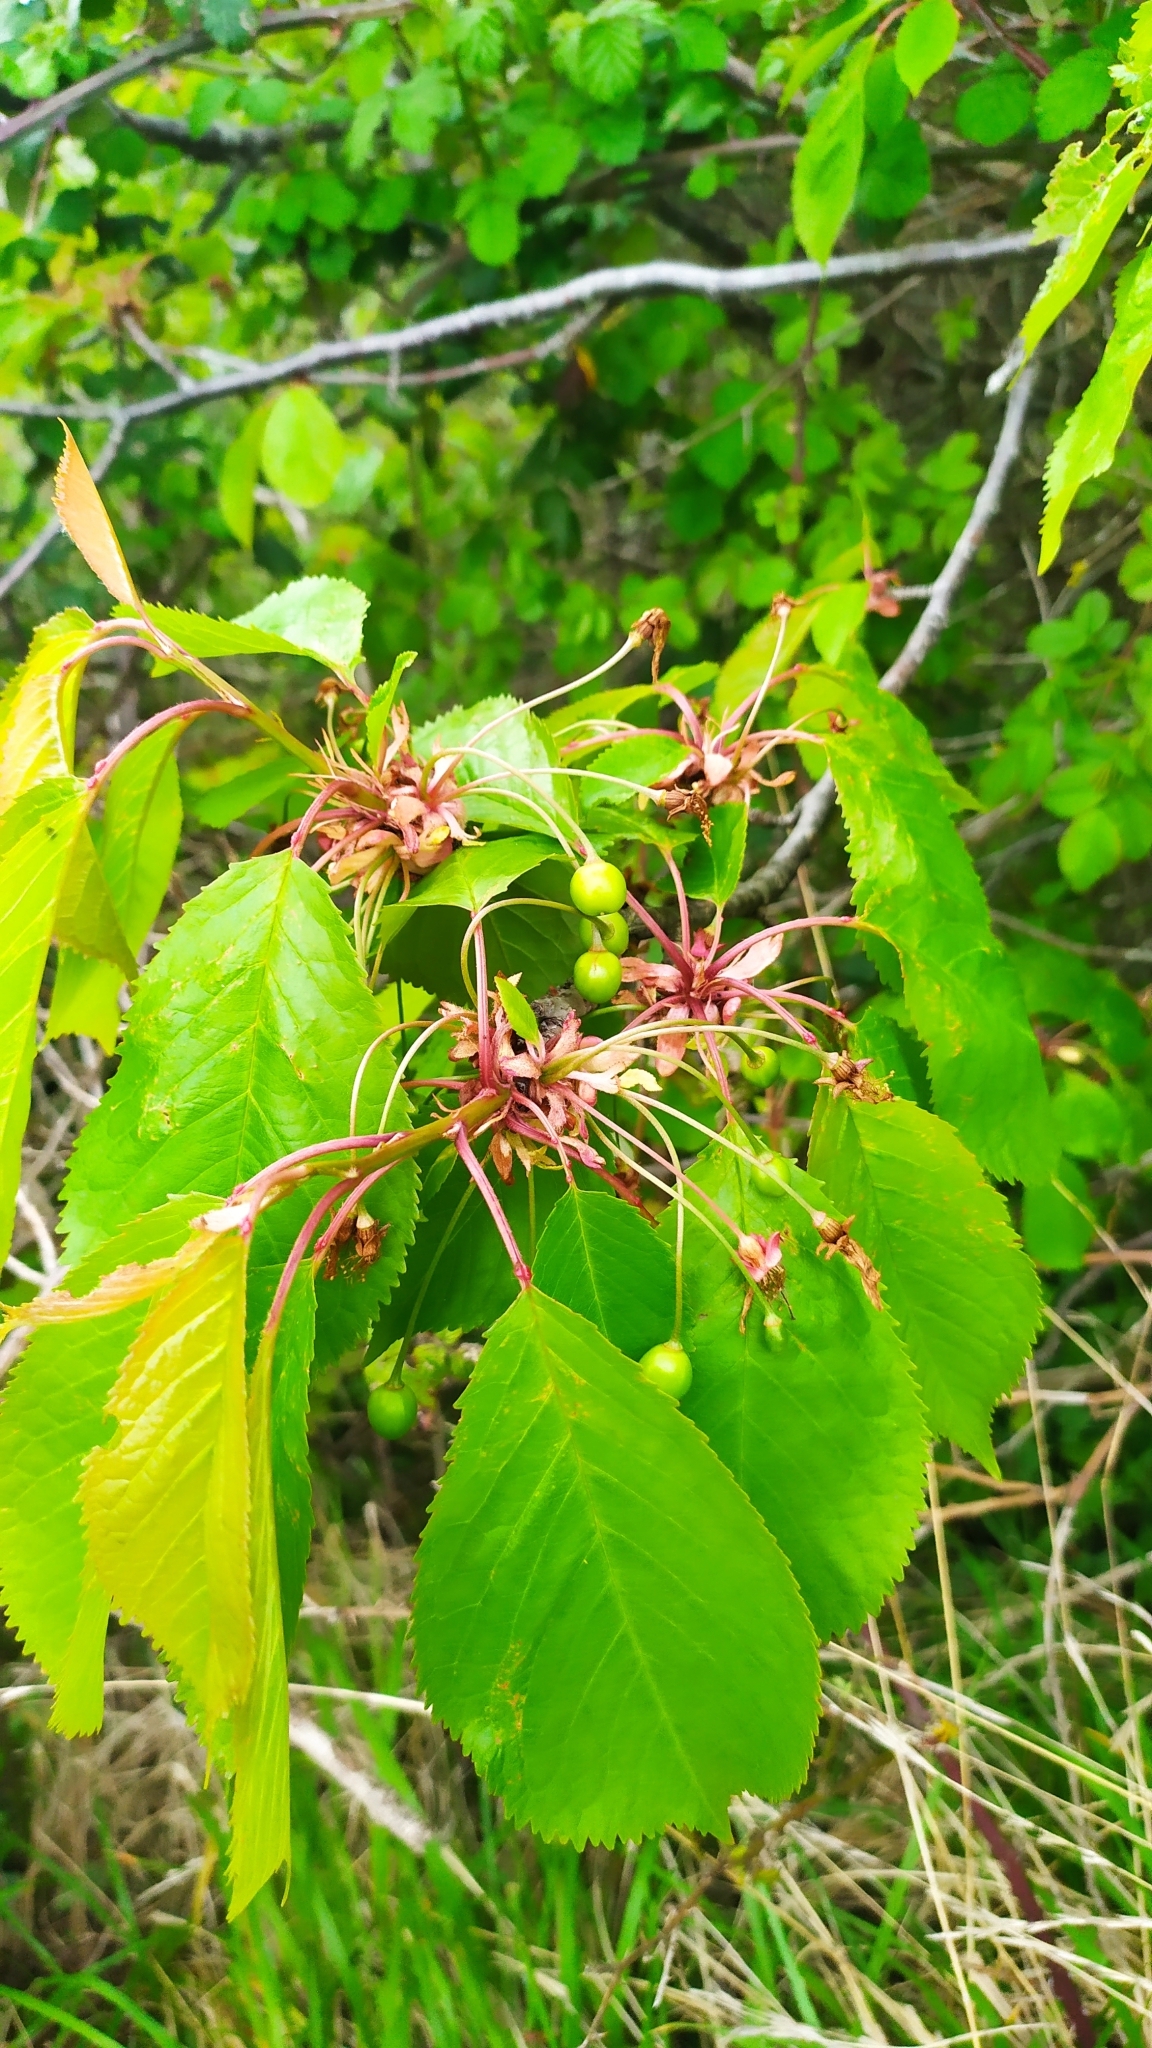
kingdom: Plantae
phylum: Tracheophyta
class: Magnoliopsida
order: Rosales
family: Rosaceae
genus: Prunus
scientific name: Prunus avium
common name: Sweet cherry
